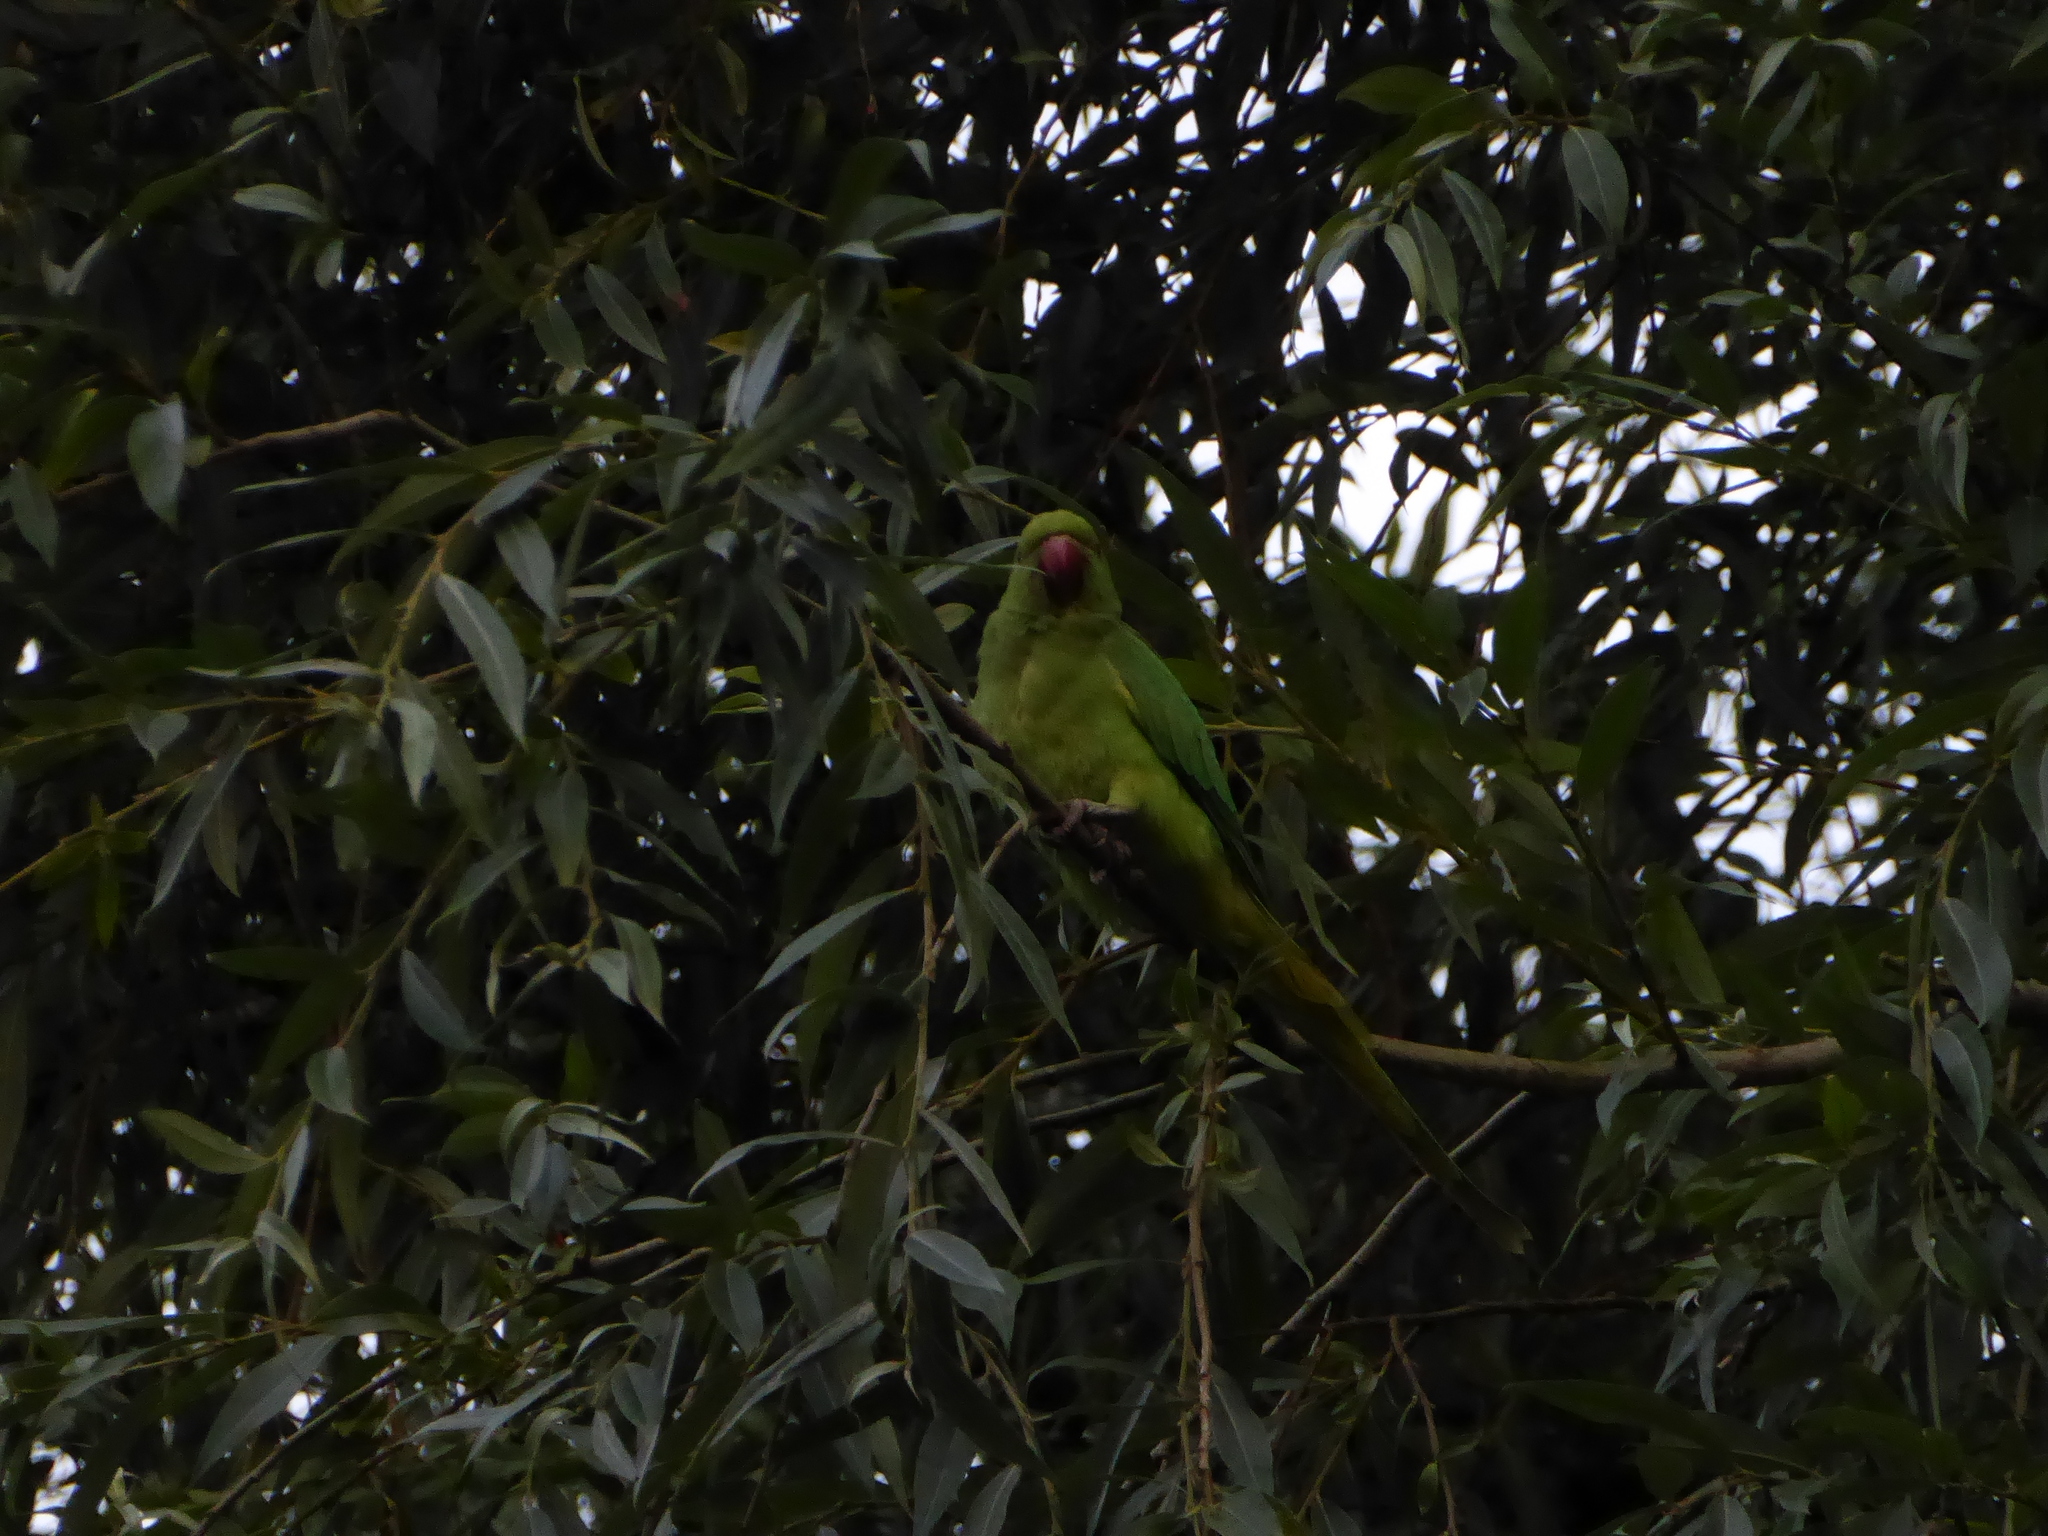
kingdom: Animalia
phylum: Chordata
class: Aves
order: Psittaciformes
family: Psittacidae
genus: Psittacula
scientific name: Psittacula krameri
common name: Rose-ringed parakeet
